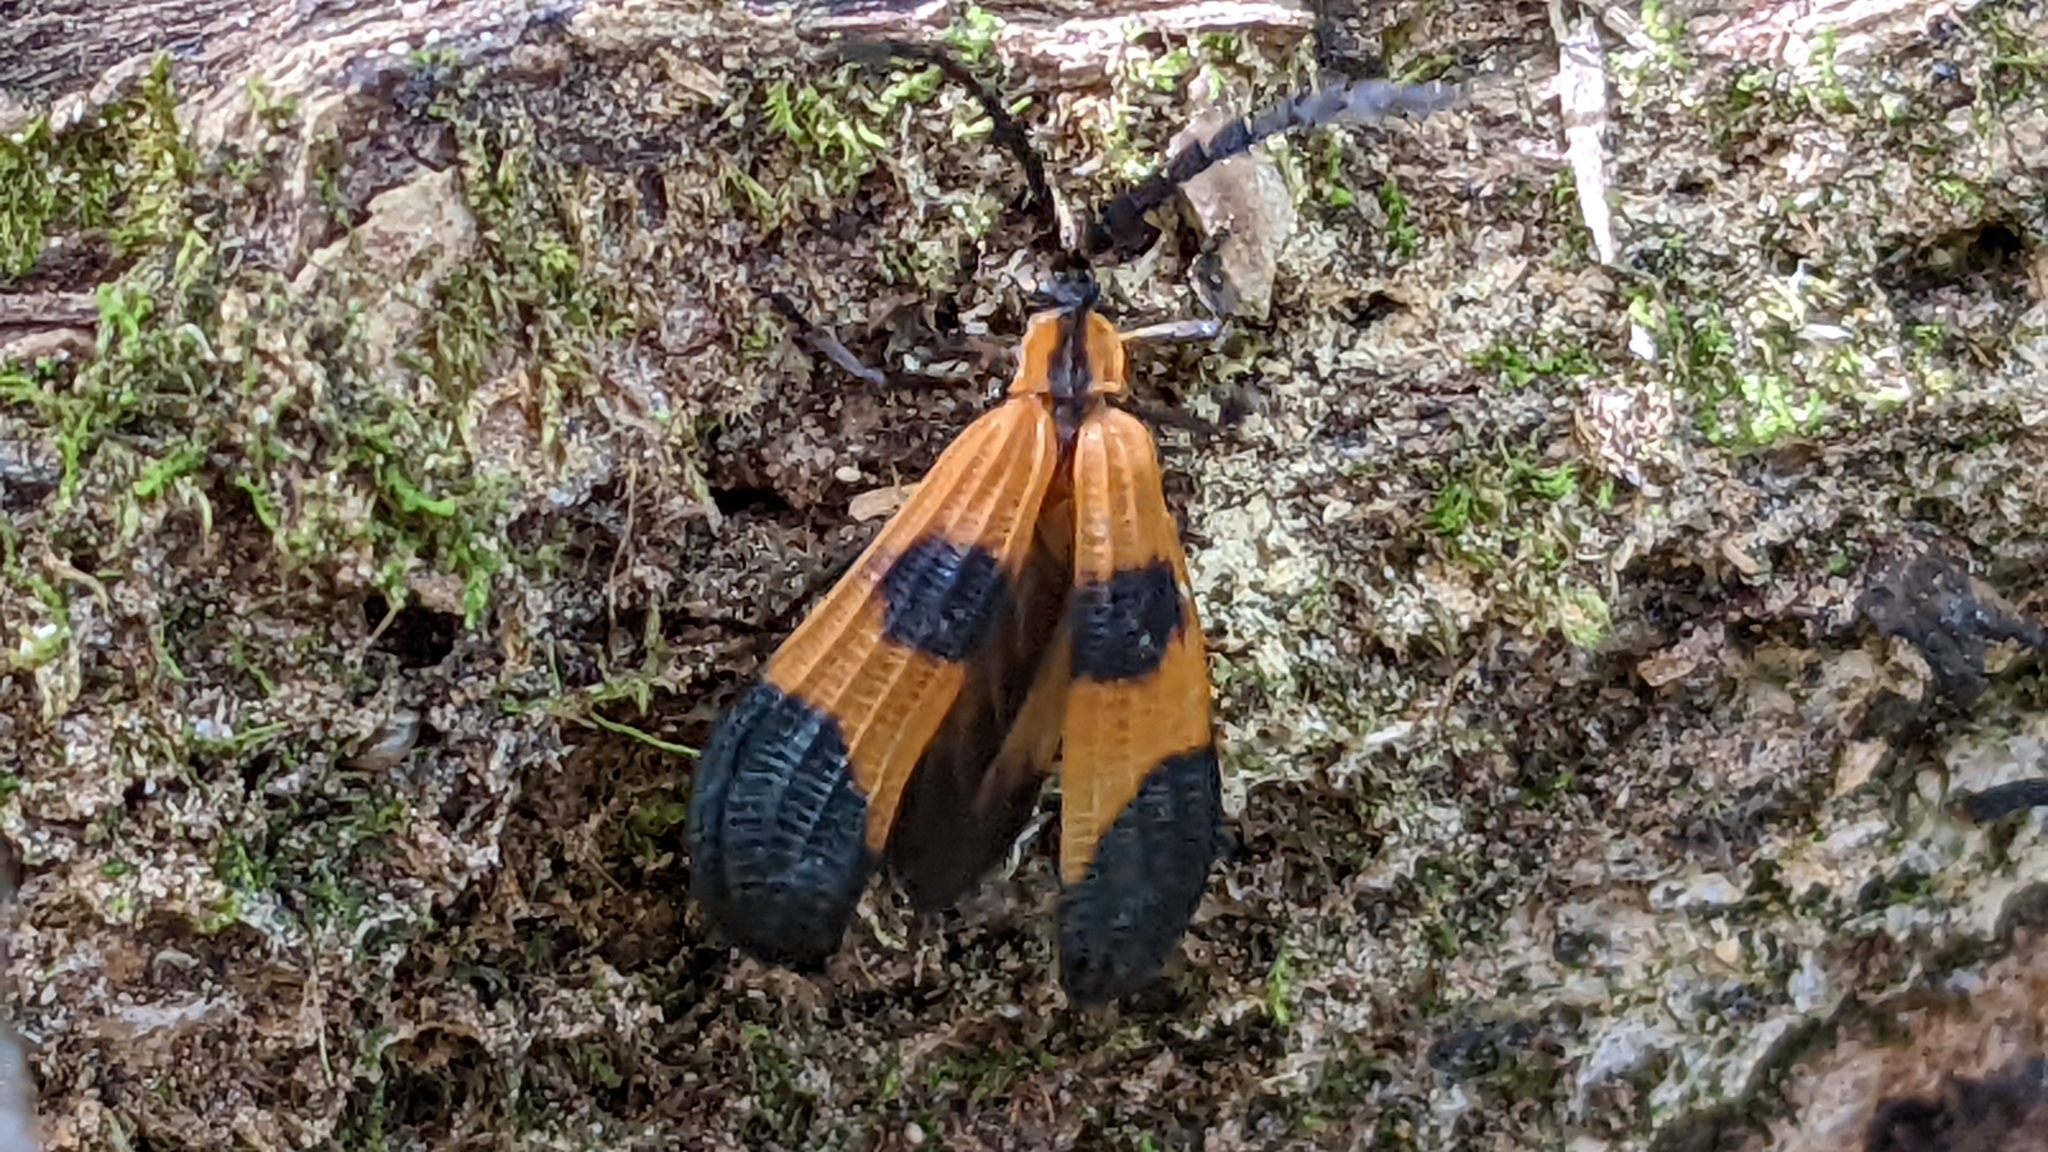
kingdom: Animalia
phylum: Arthropoda
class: Insecta
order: Coleoptera
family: Lycidae
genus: Calopteron
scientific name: Calopteron terminale
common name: End band net-winged beetle
